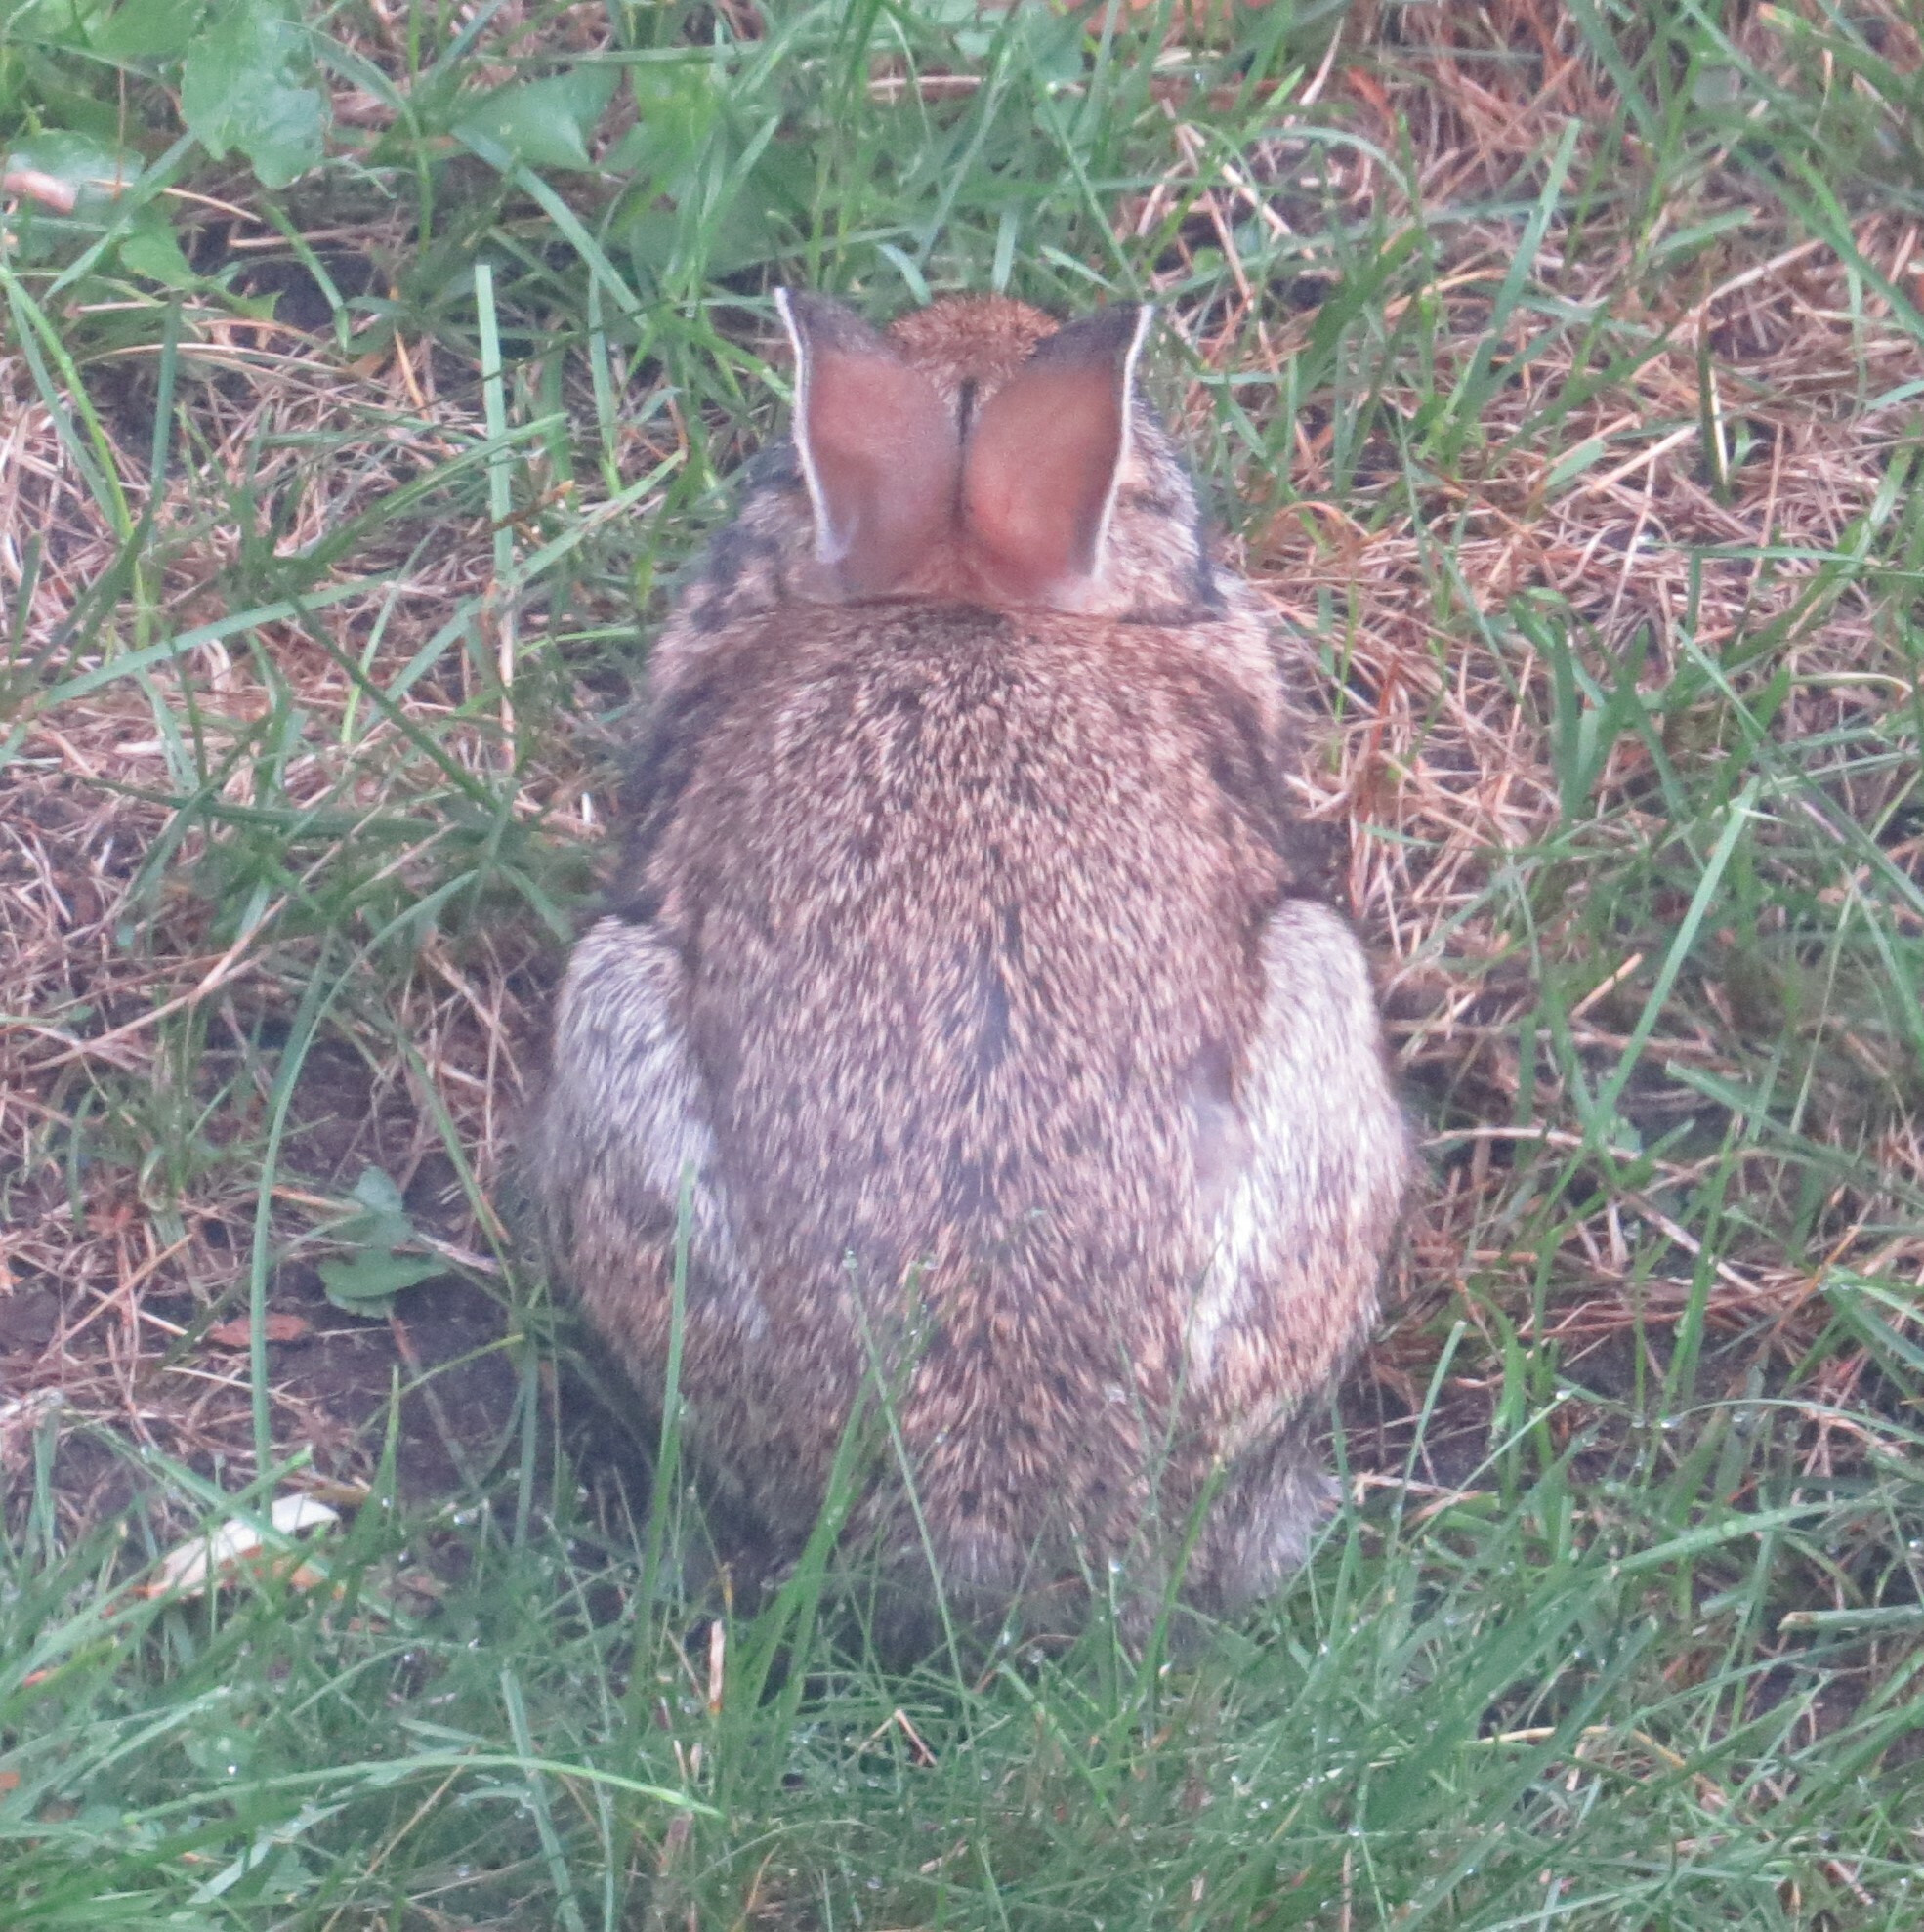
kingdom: Animalia
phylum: Chordata
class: Mammalia
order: Lagomorpha
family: Leporidae
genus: Sylvilagus
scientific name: Sylvilagus floridanus
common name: Eastern cottontail
